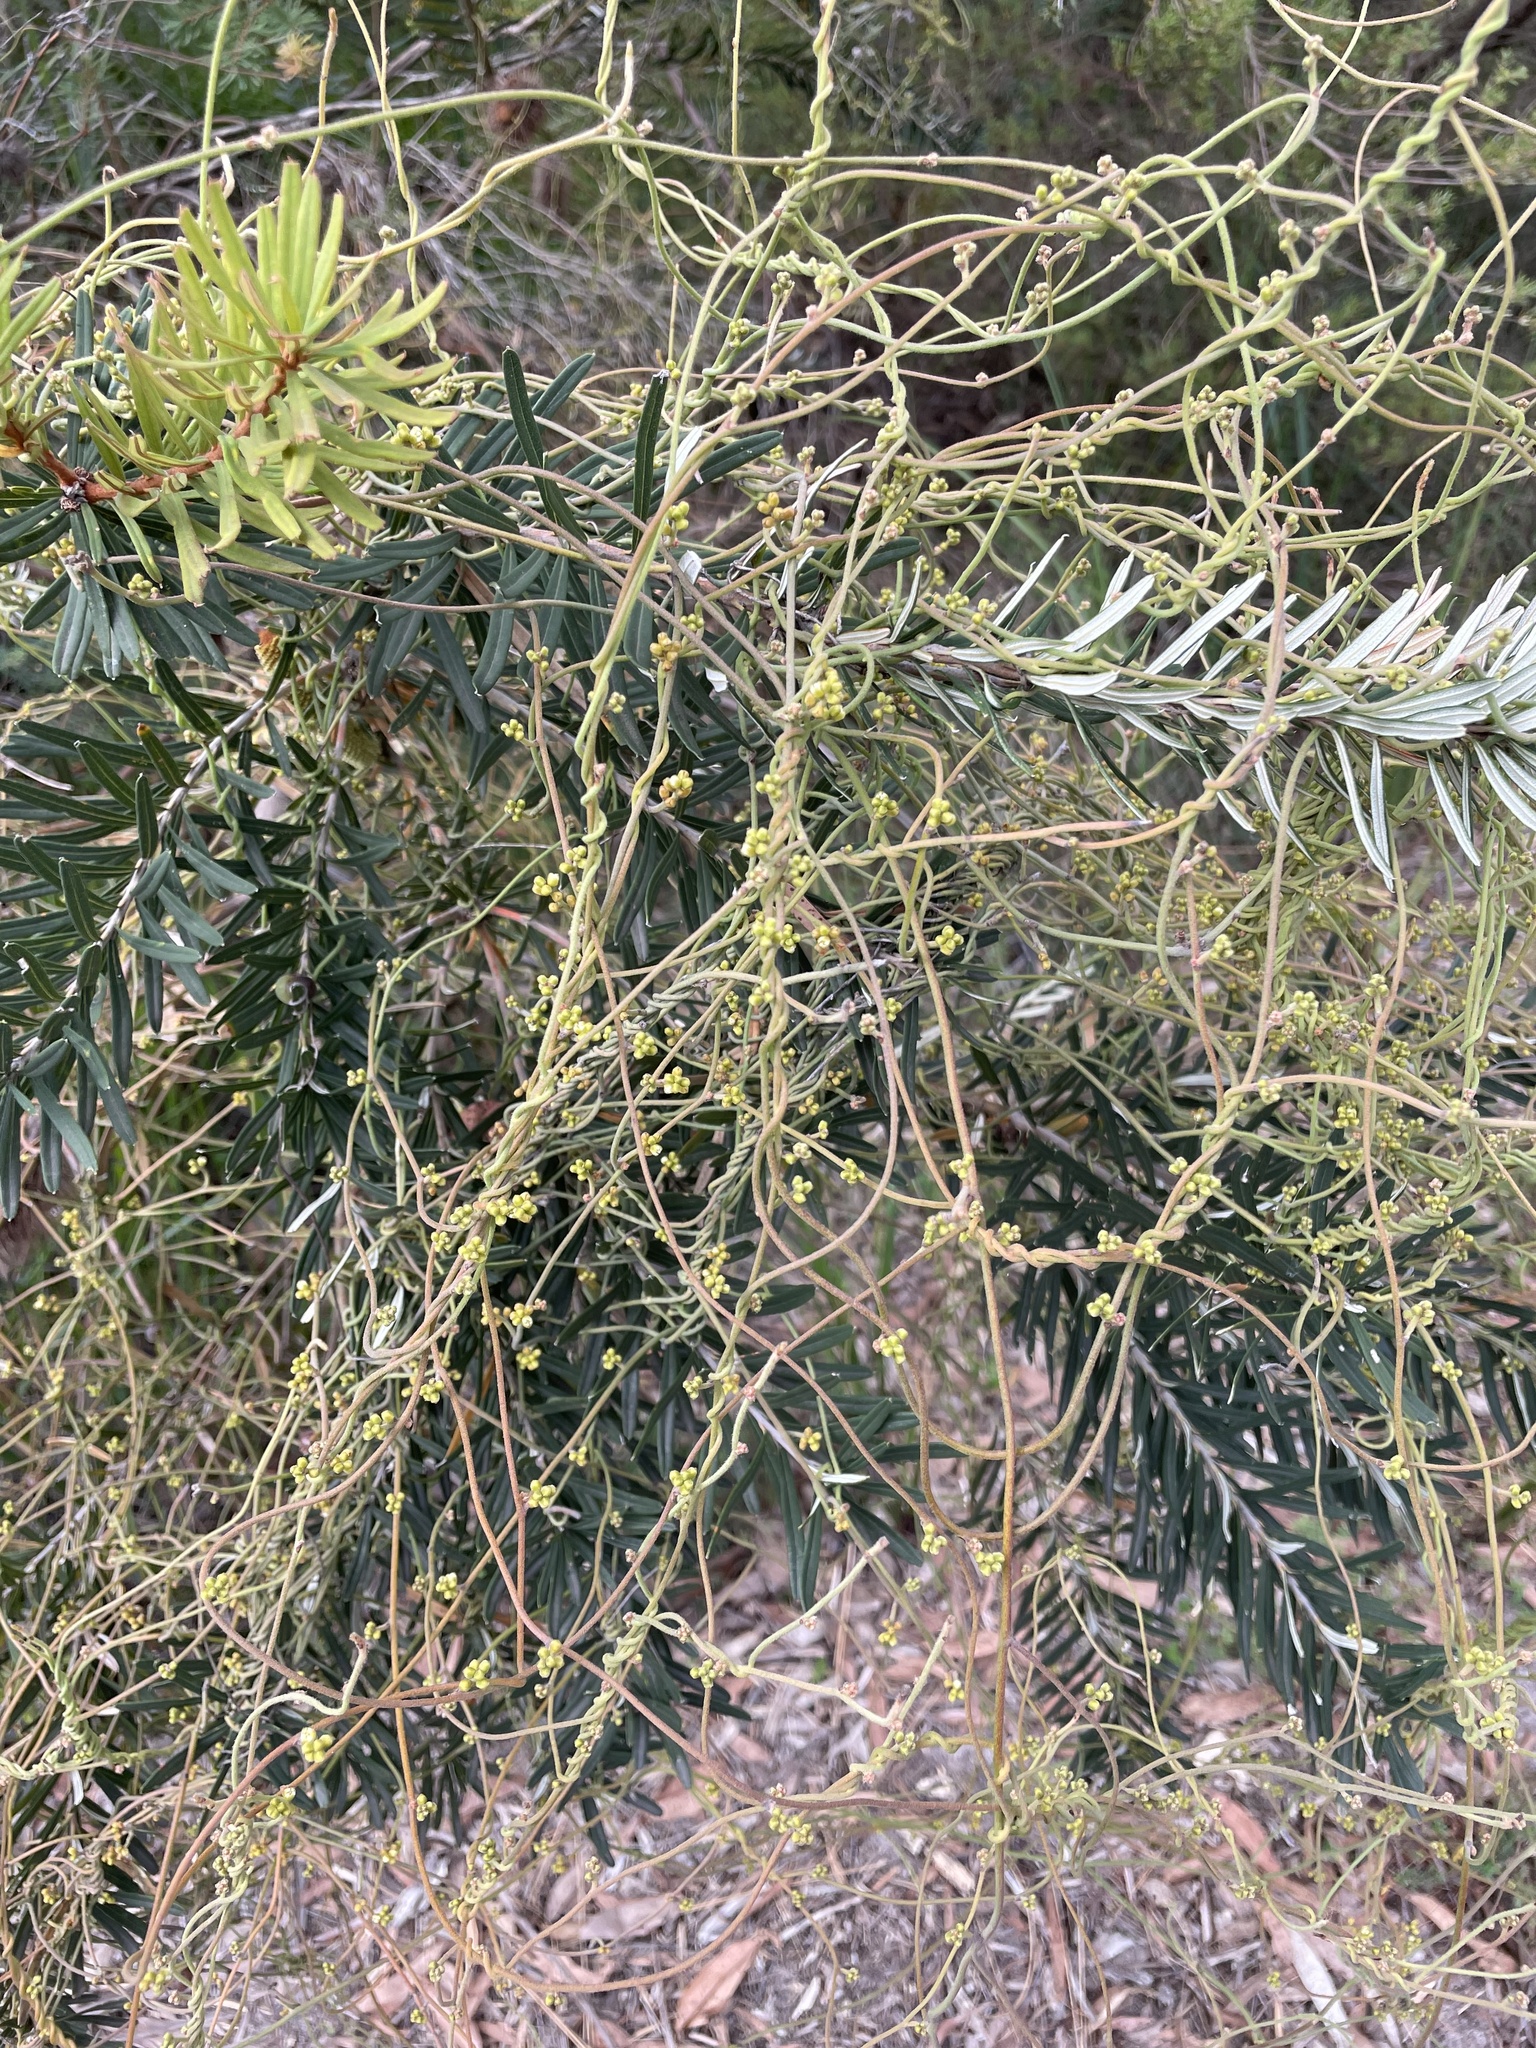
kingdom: Plantae
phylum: Tracheophyta
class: Magnoliopsida
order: Laurales
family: Lauraceae
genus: Cassytha
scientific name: Cassytha pubescens
